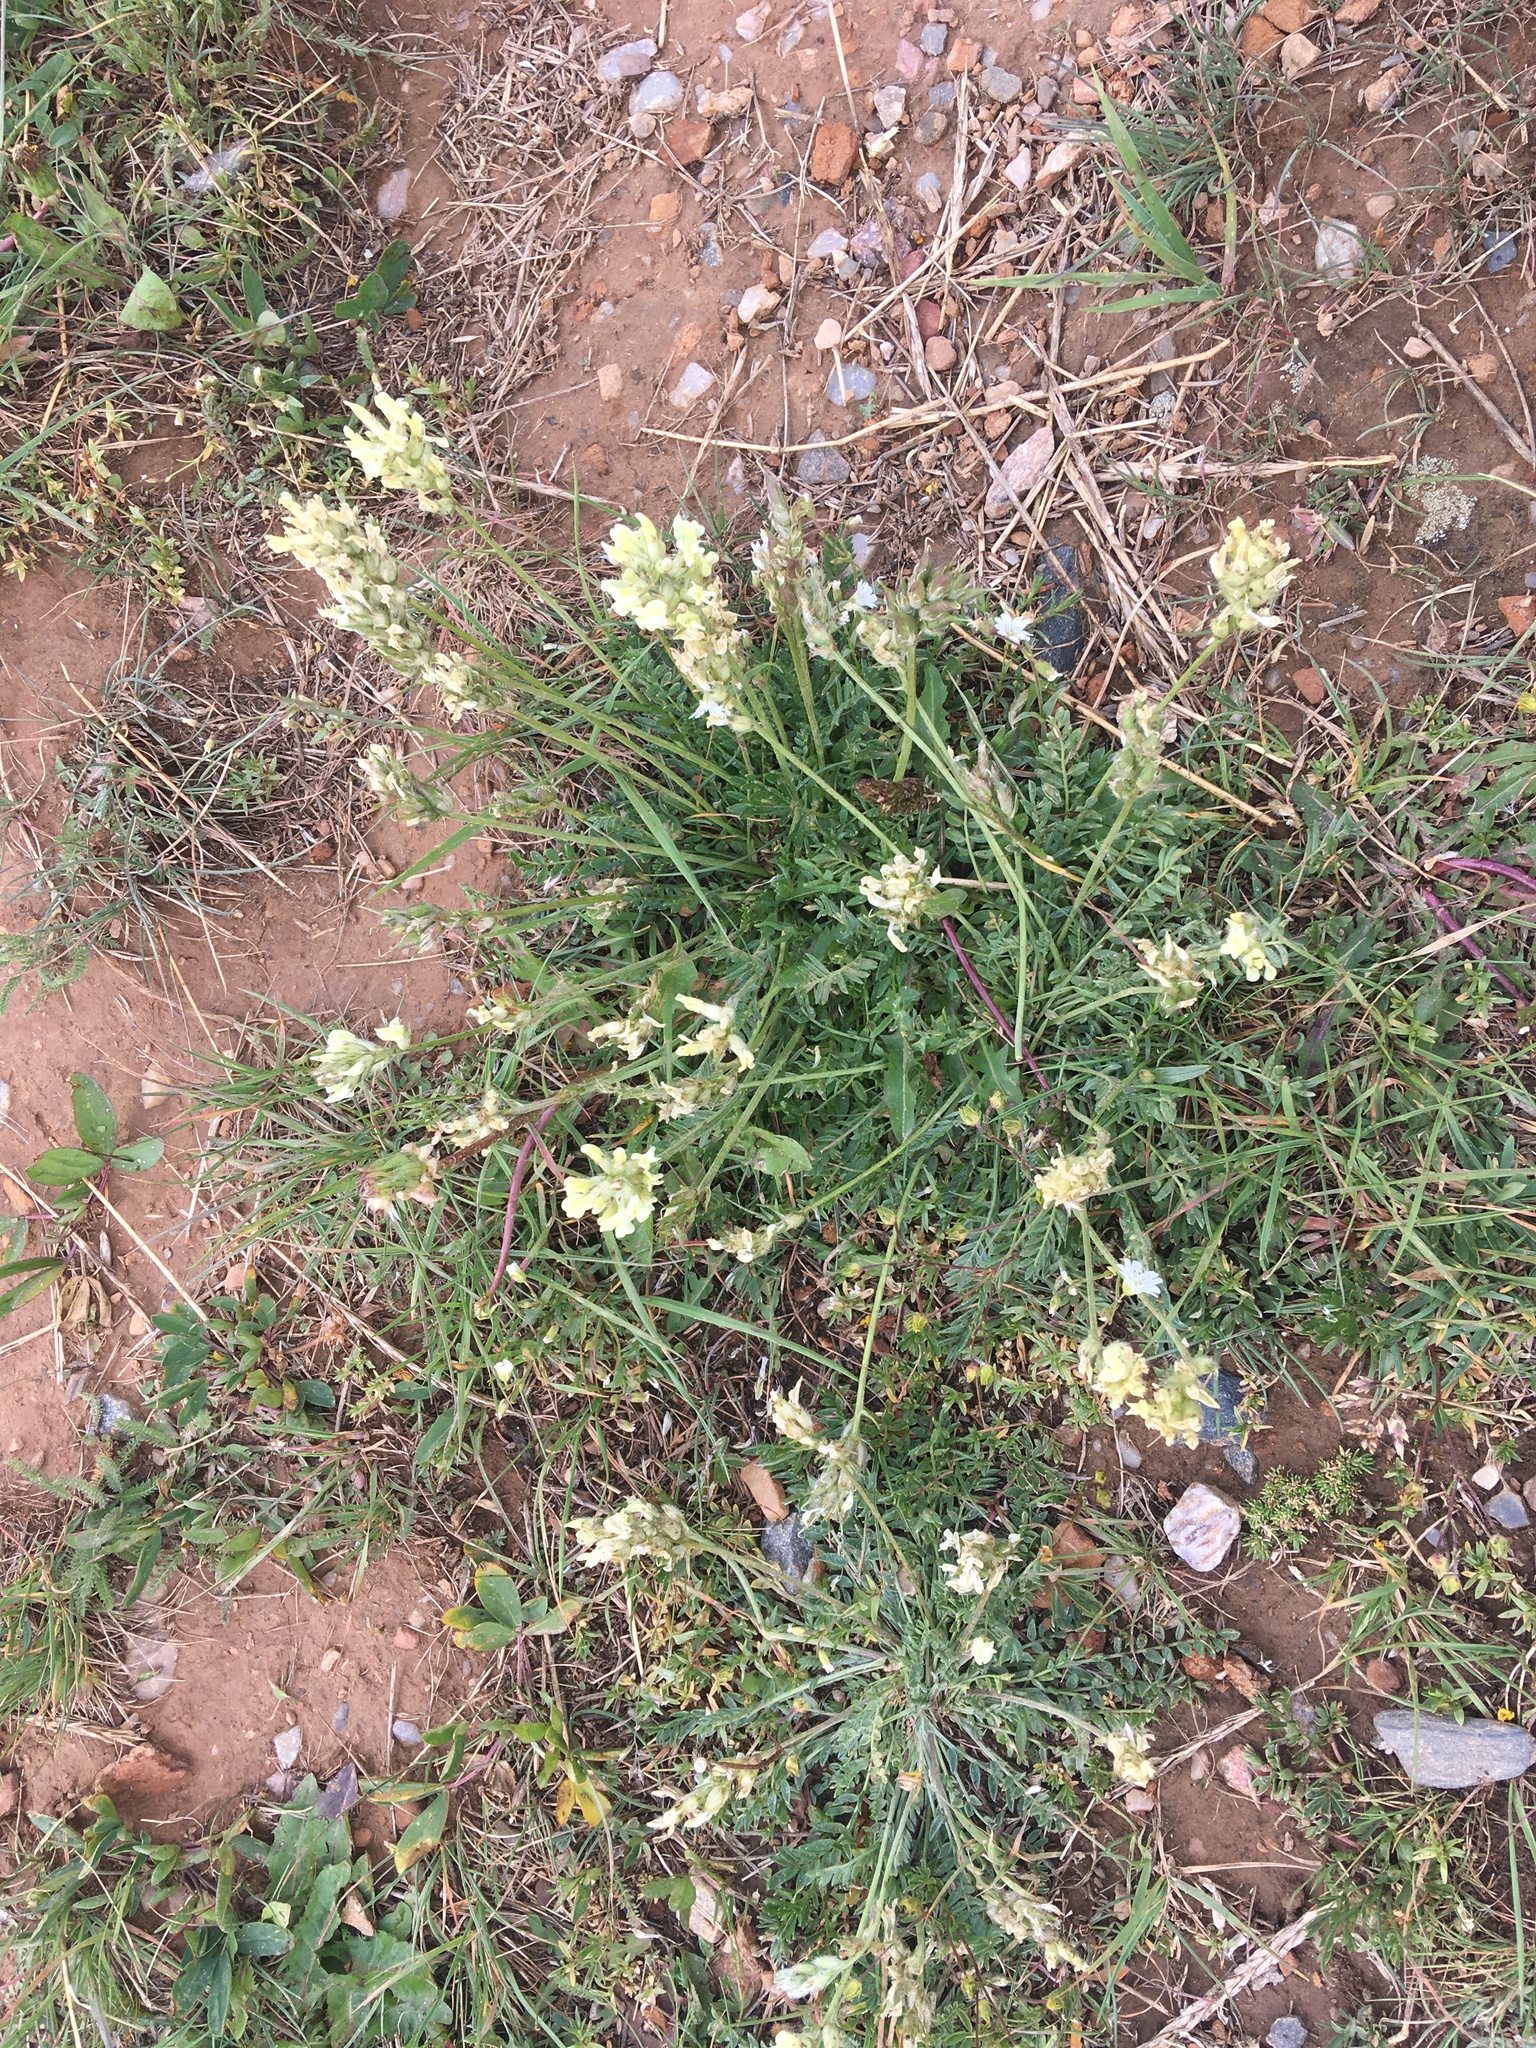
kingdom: Plantae
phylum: Tracheophyta
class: Magnoliopsida
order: Fabales
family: Fabaceae
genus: Oxytropis
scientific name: Oxytropis campestris
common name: Field locoweed
